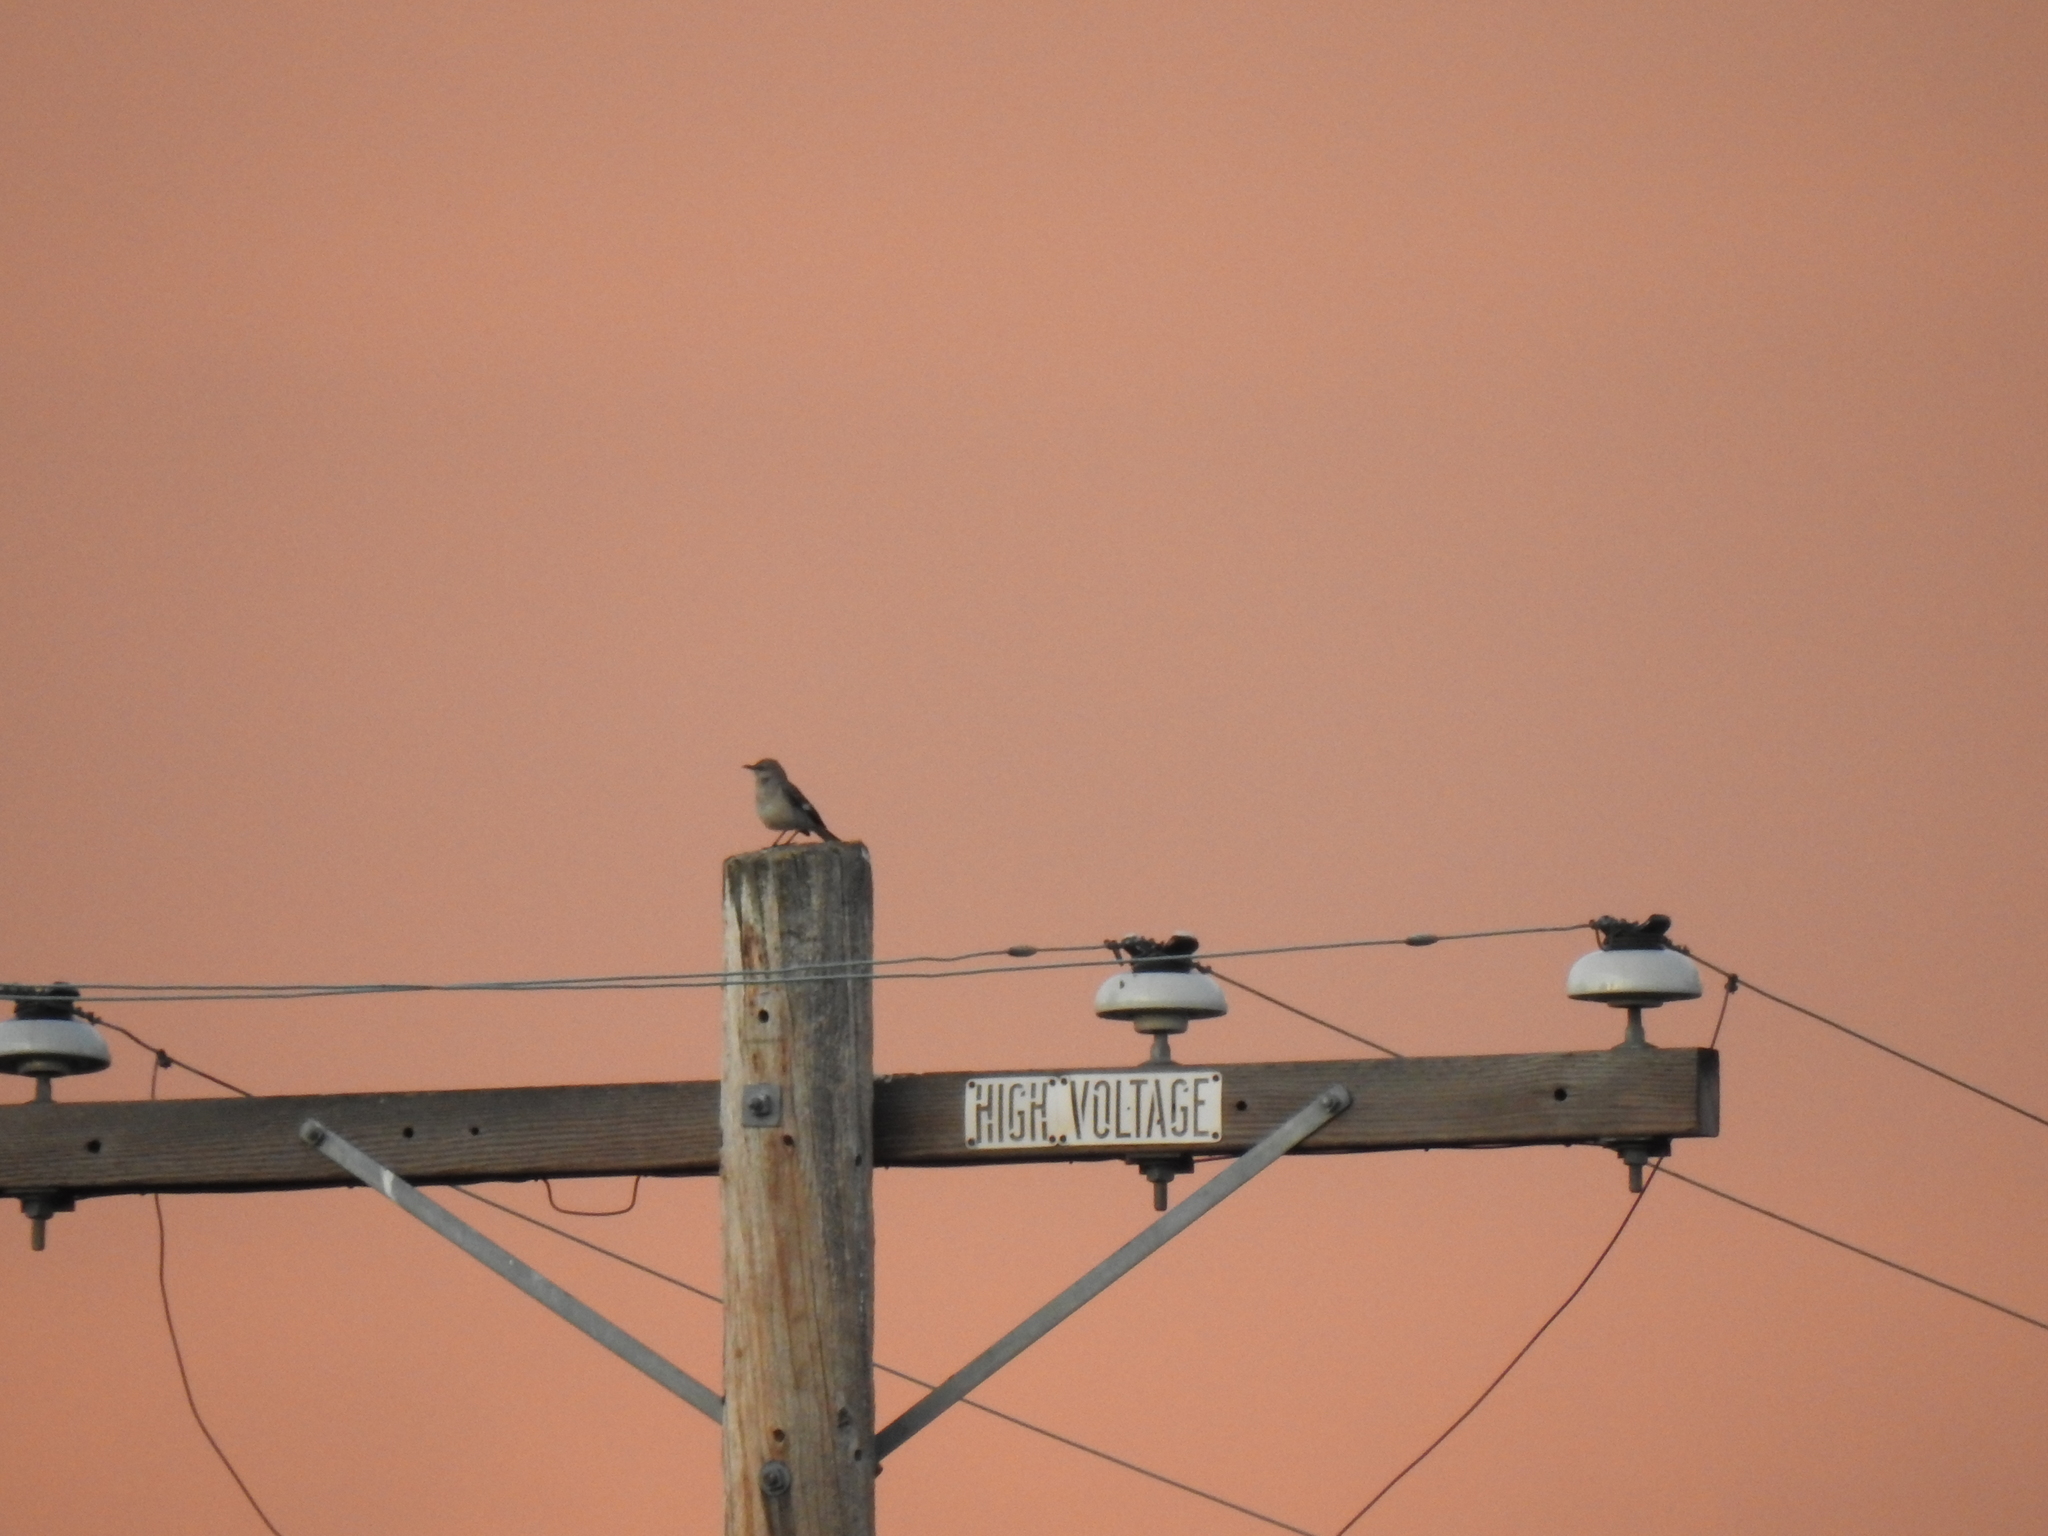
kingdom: Animalia
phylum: Chordata
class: Aves
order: Passeriformes
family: Mimidae
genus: Mimus
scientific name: Mimus polyglottos
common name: Northern mockingbird
